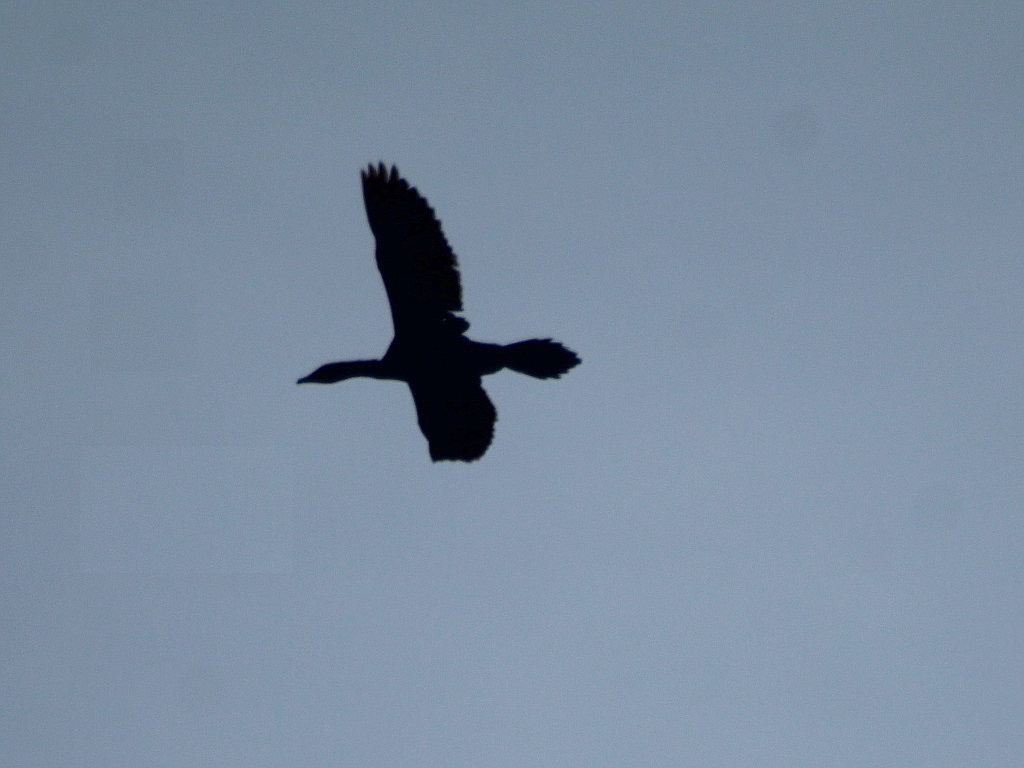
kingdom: Animalia
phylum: Chordata
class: Aves
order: Suliformes
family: Phalacrocoracidae
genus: Microcarbo
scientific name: Microcarbo pygmaeus
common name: Pygmy cormorant
